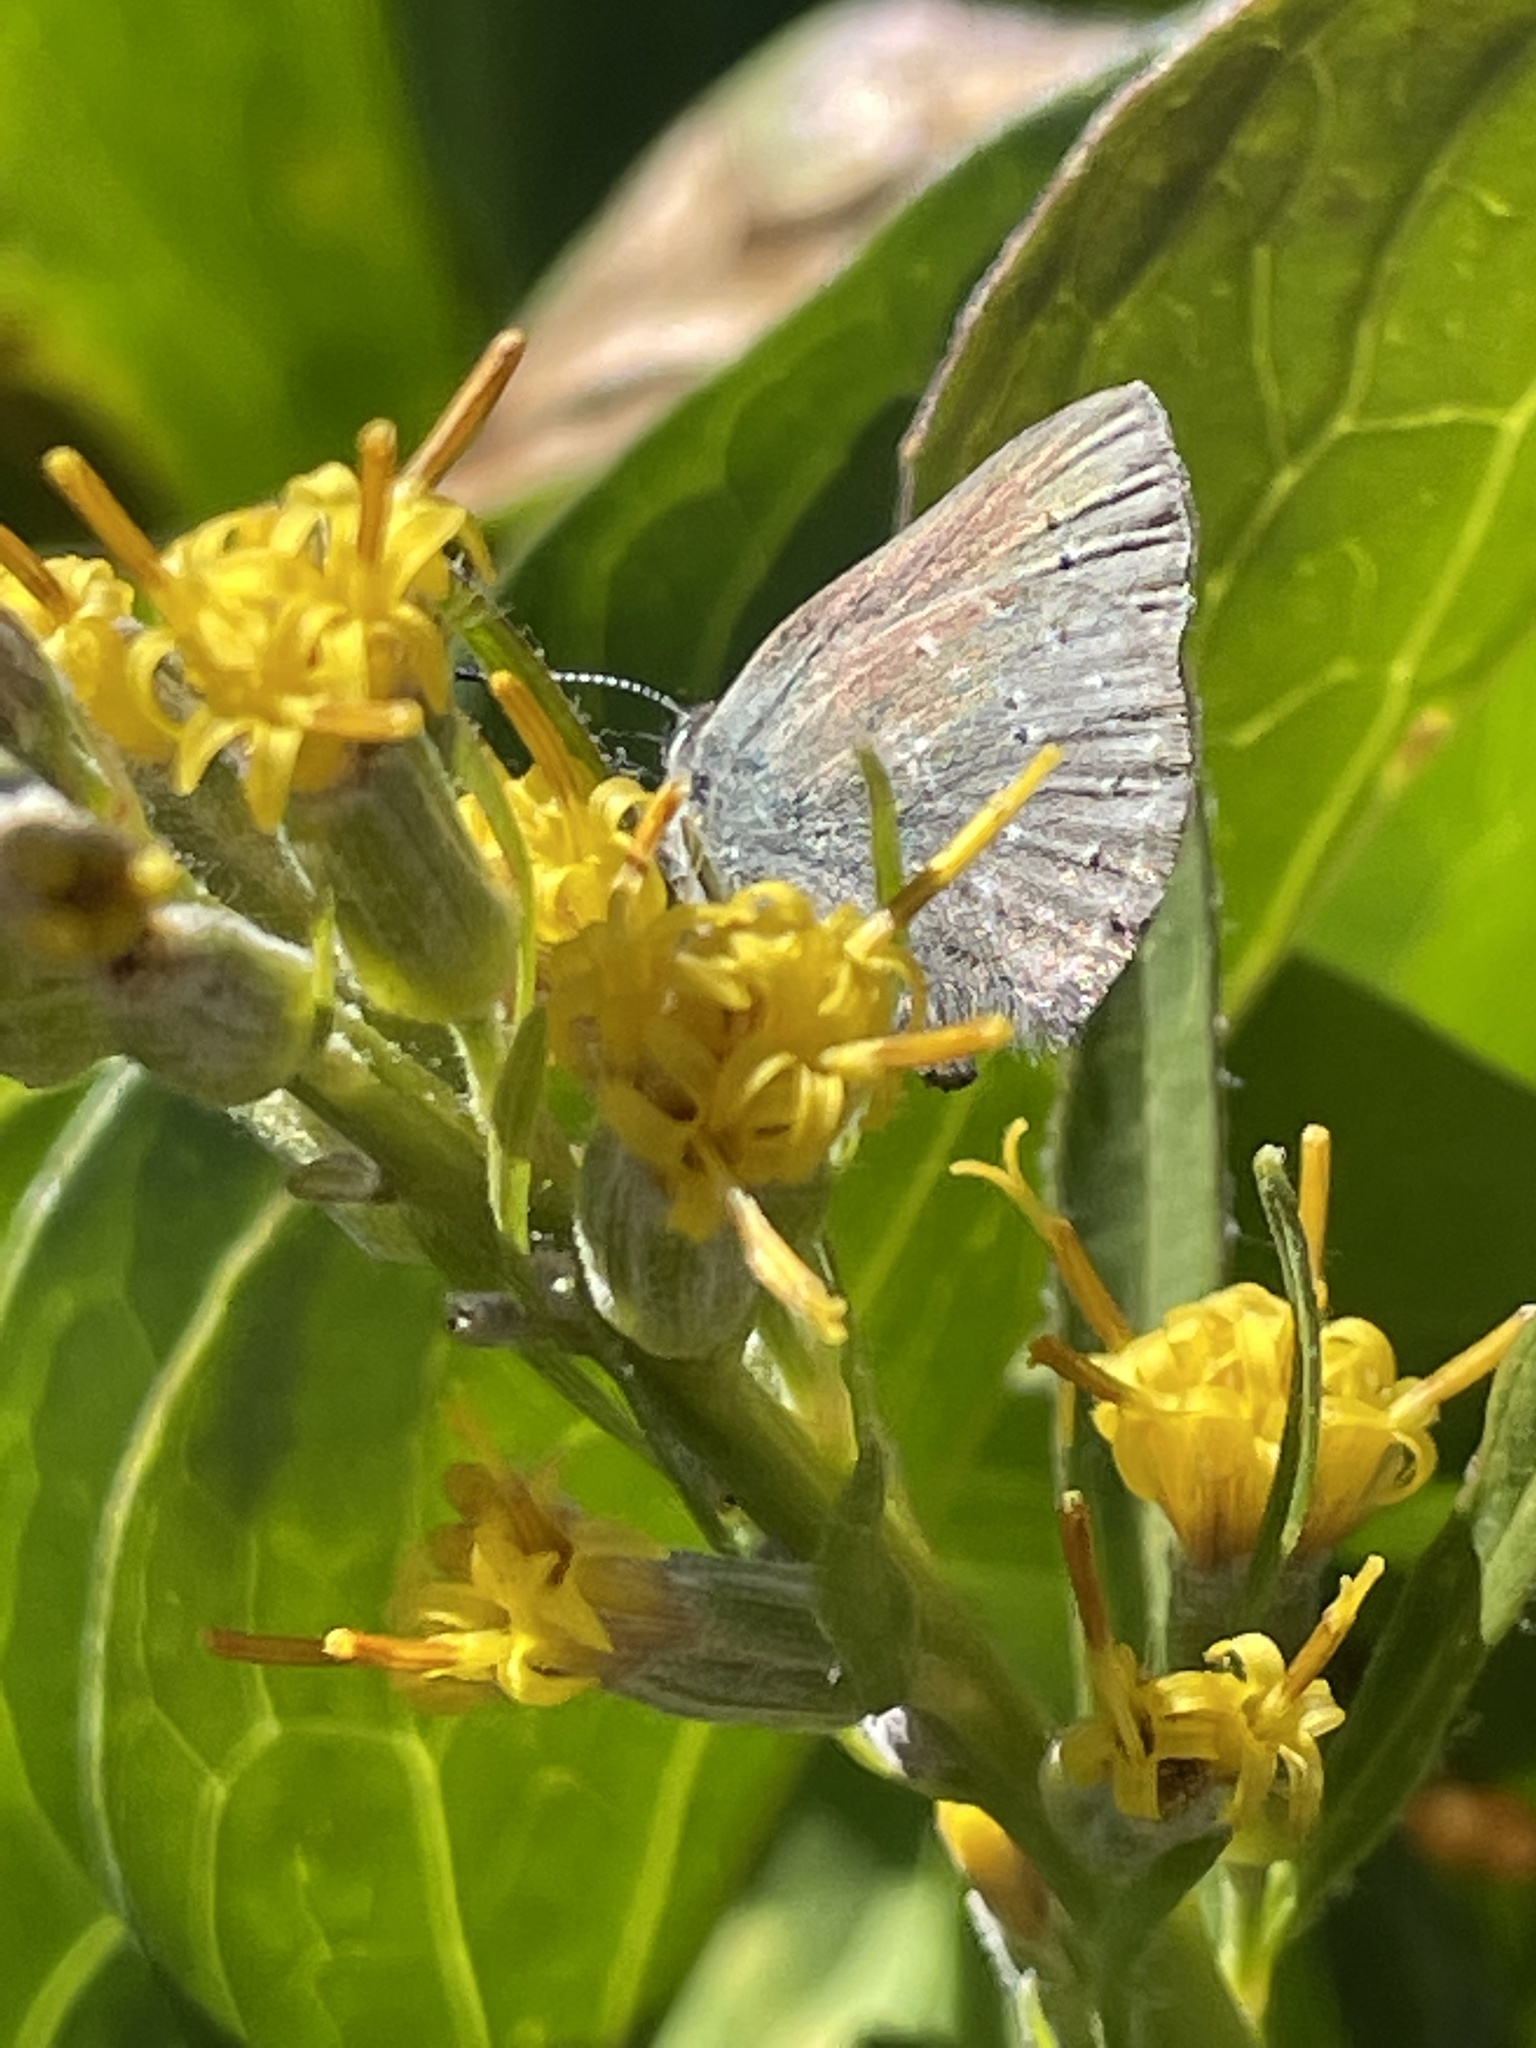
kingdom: Animalia
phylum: Arthropoda
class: Insecta
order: Lepidoptera
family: Lycaenidae
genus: Satyrium
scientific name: Satyrium fuliginosa
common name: Western sooty hairstreak
